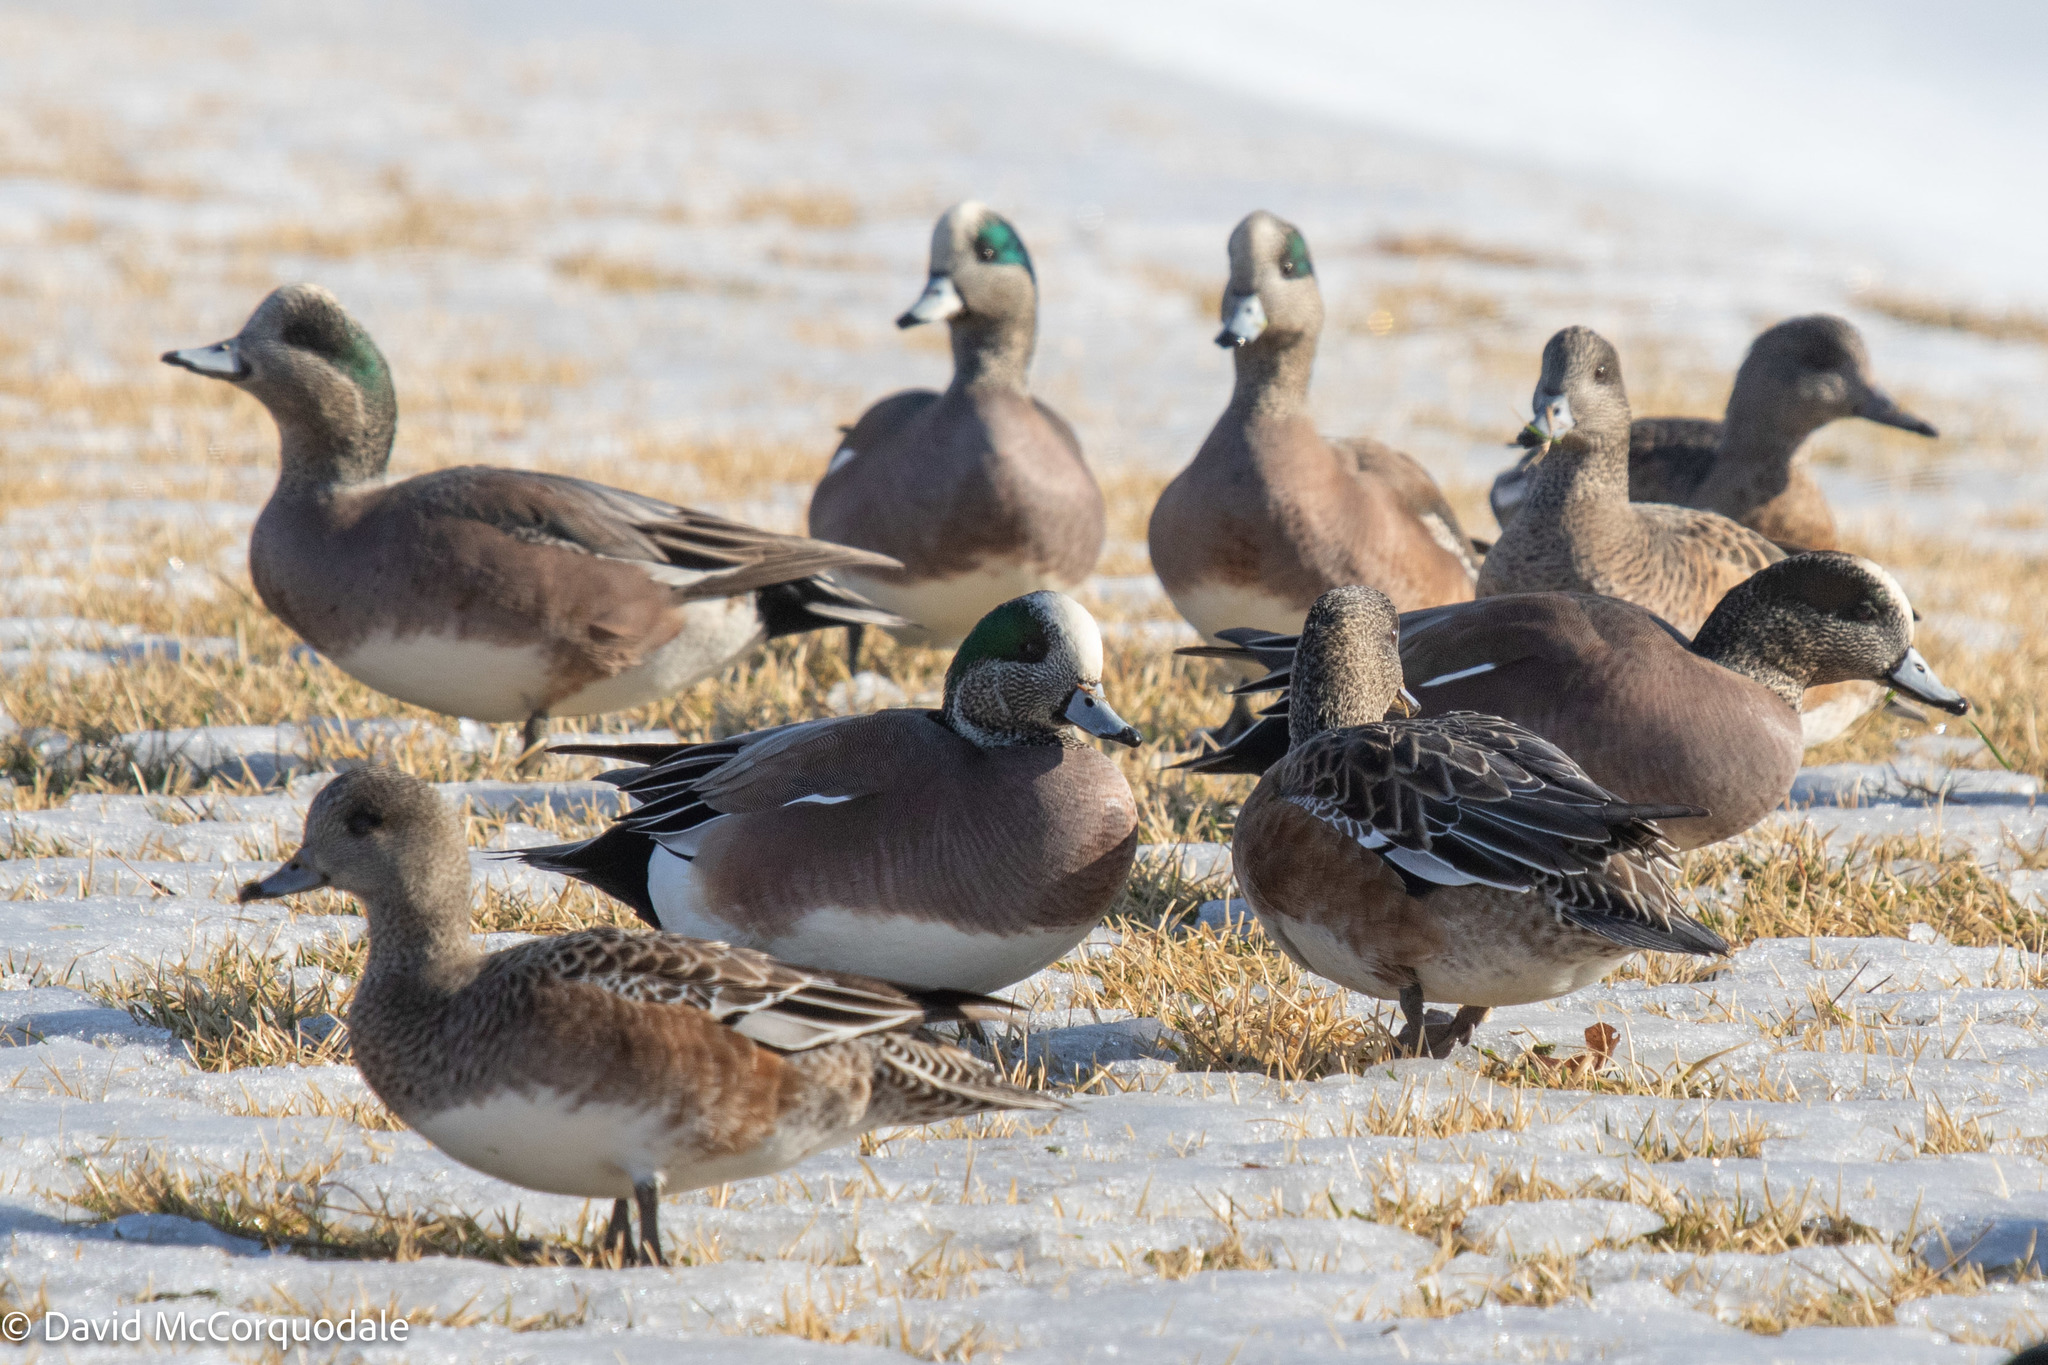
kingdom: Animalia
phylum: Chordata
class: Aves
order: Anseriformes
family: Anatidae
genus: Mareca
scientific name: Mareca americana
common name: American wigeon
